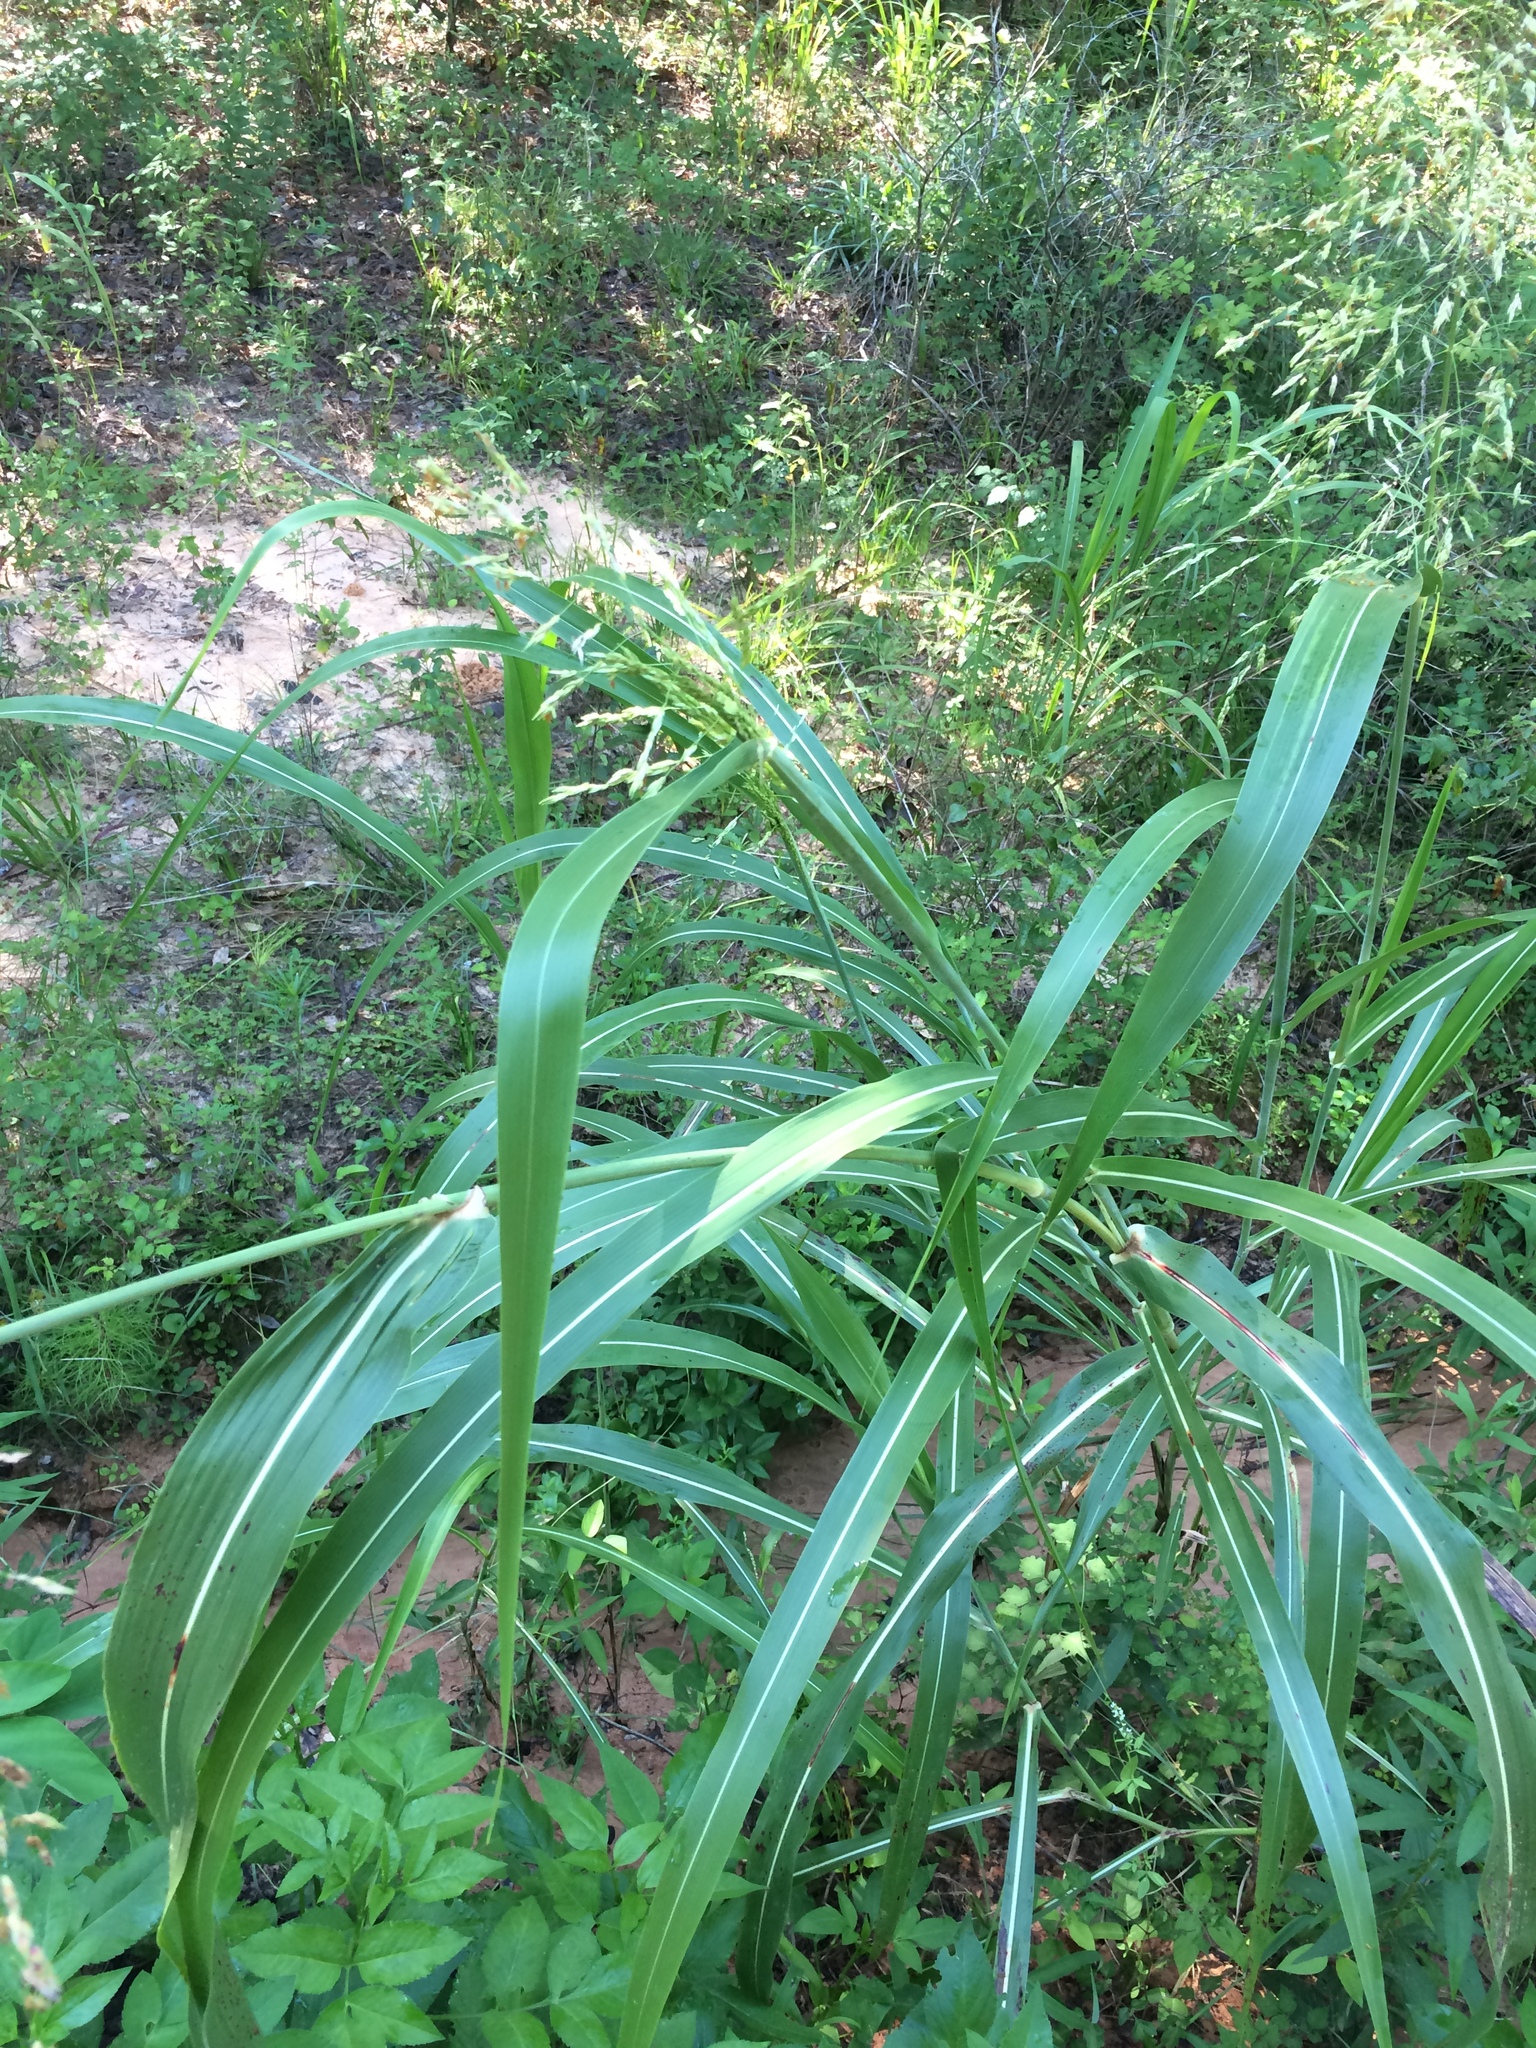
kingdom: Plantae
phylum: Tracheophyta
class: Liliopsida
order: Poales
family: Poaceae
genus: Sorghum
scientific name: Sorghum halepense
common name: Johnson-grass
